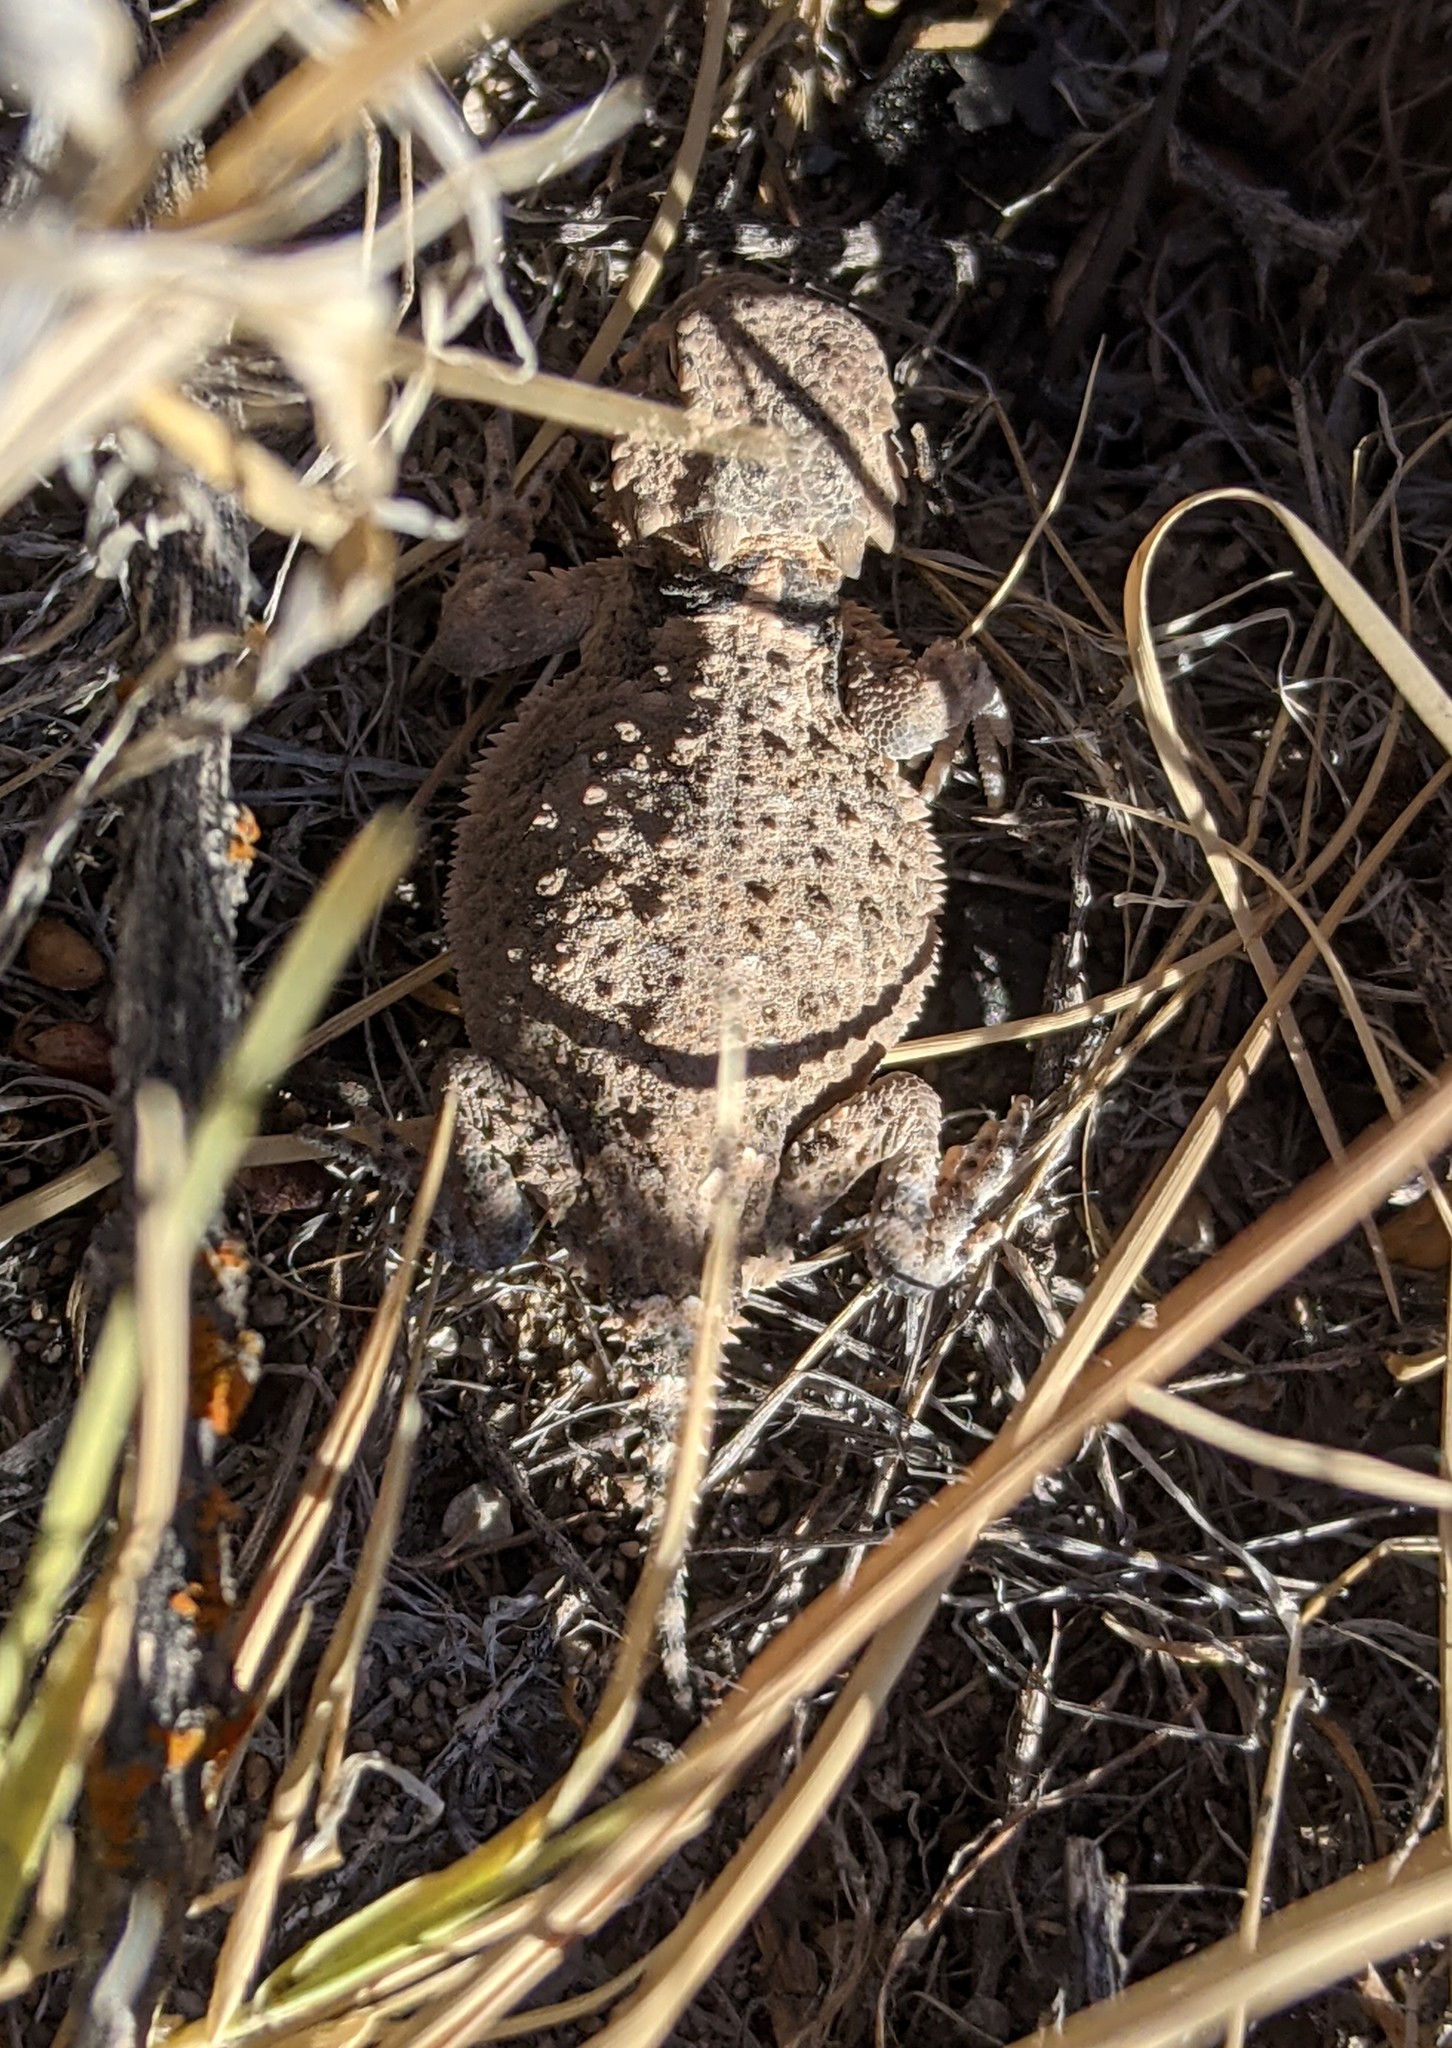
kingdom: Animalia
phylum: Chordata
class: Squamata
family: Phrynosomatidae
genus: Phrynosoma
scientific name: Phrynosoma platyrhinos
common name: Desert horned lizard
